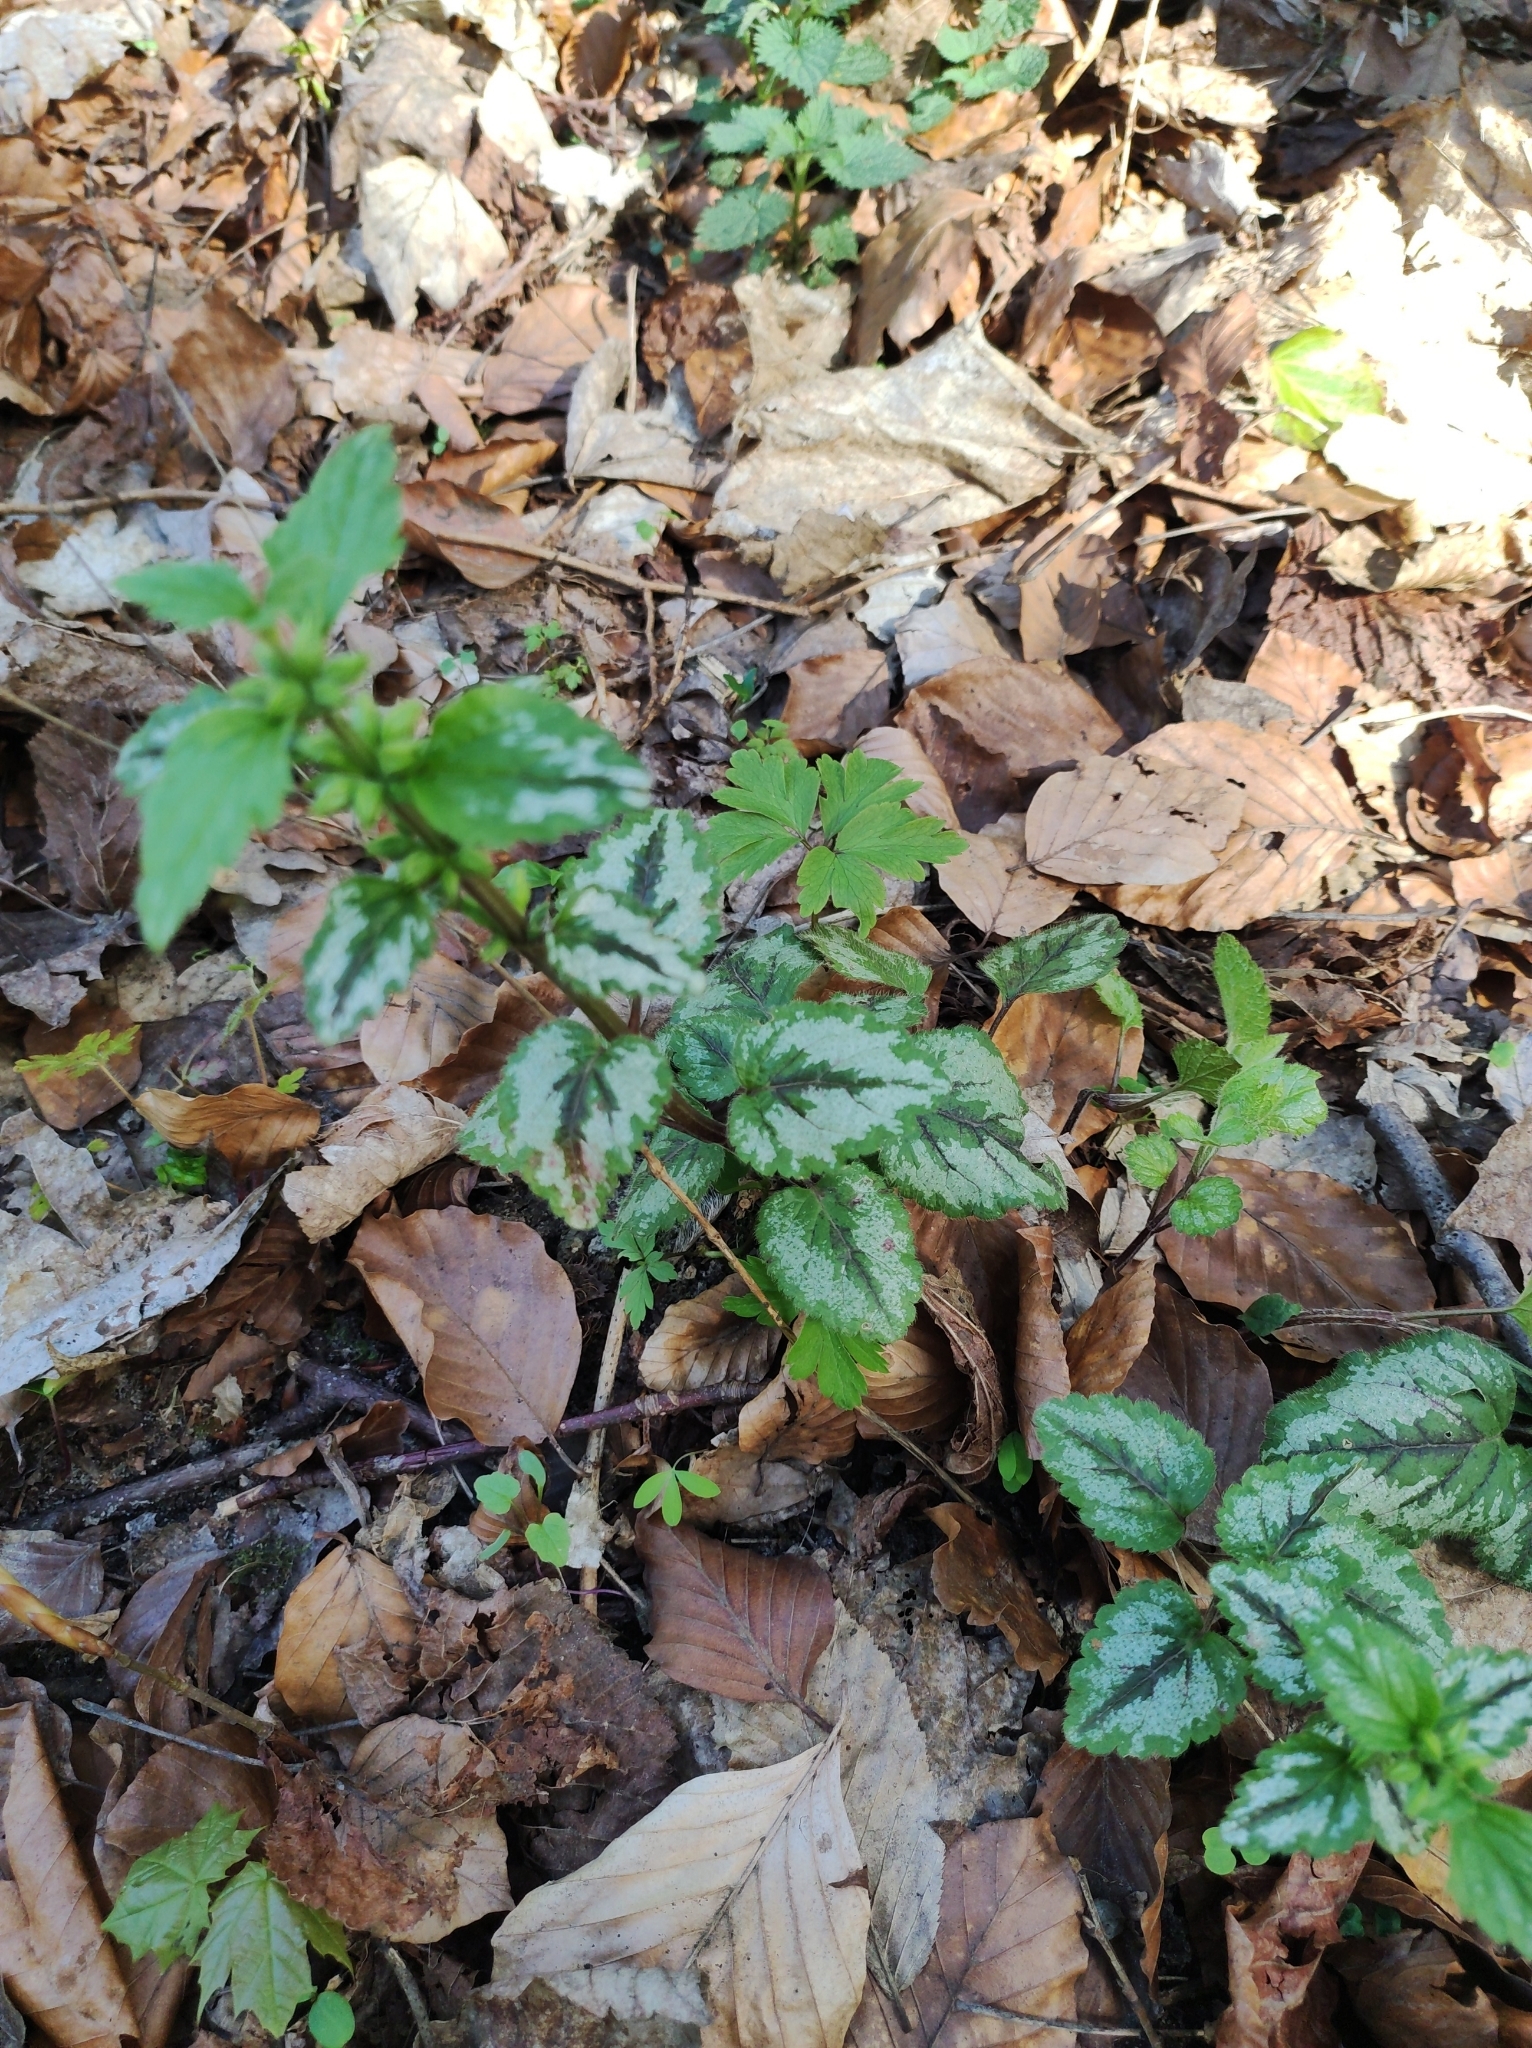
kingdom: Plantae
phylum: Tracheophyta
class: Magnoliopsida
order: Lamiales
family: Lamiaceae
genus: Lamium
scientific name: Lamium galeobdolon
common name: Yellow archangel
